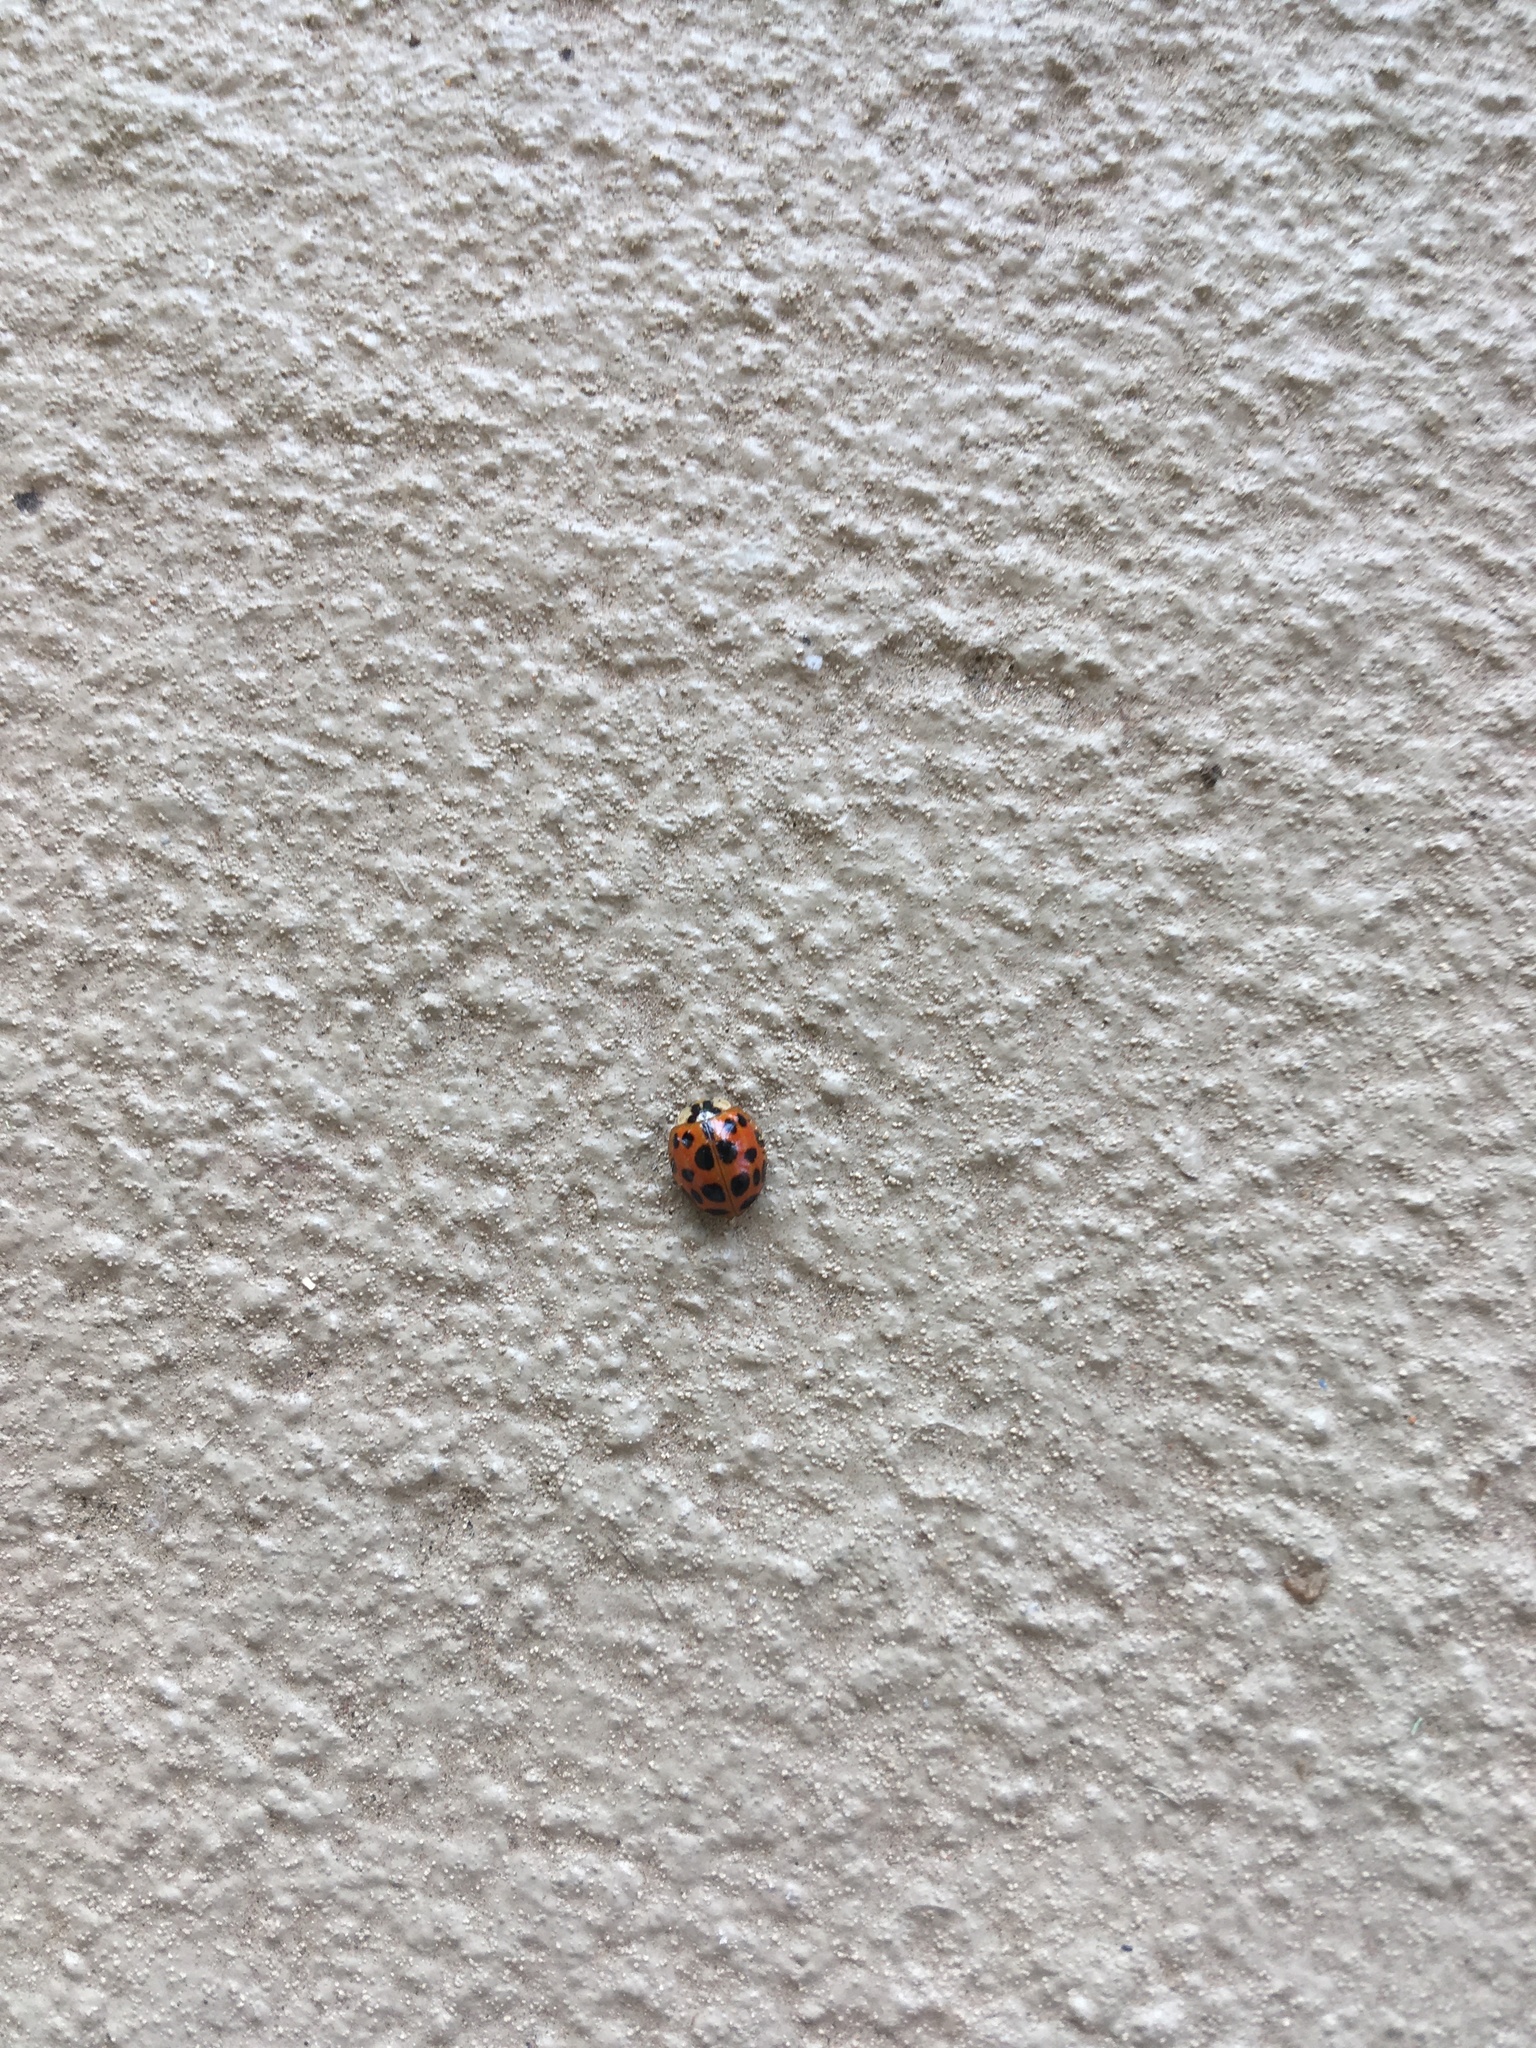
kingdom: Animalia
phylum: Arthropoda
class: Insecta
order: Coleoptera
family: Coccinellidae
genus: Harmonia
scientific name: Harmonia axyridis
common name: Harlequin ladybird
